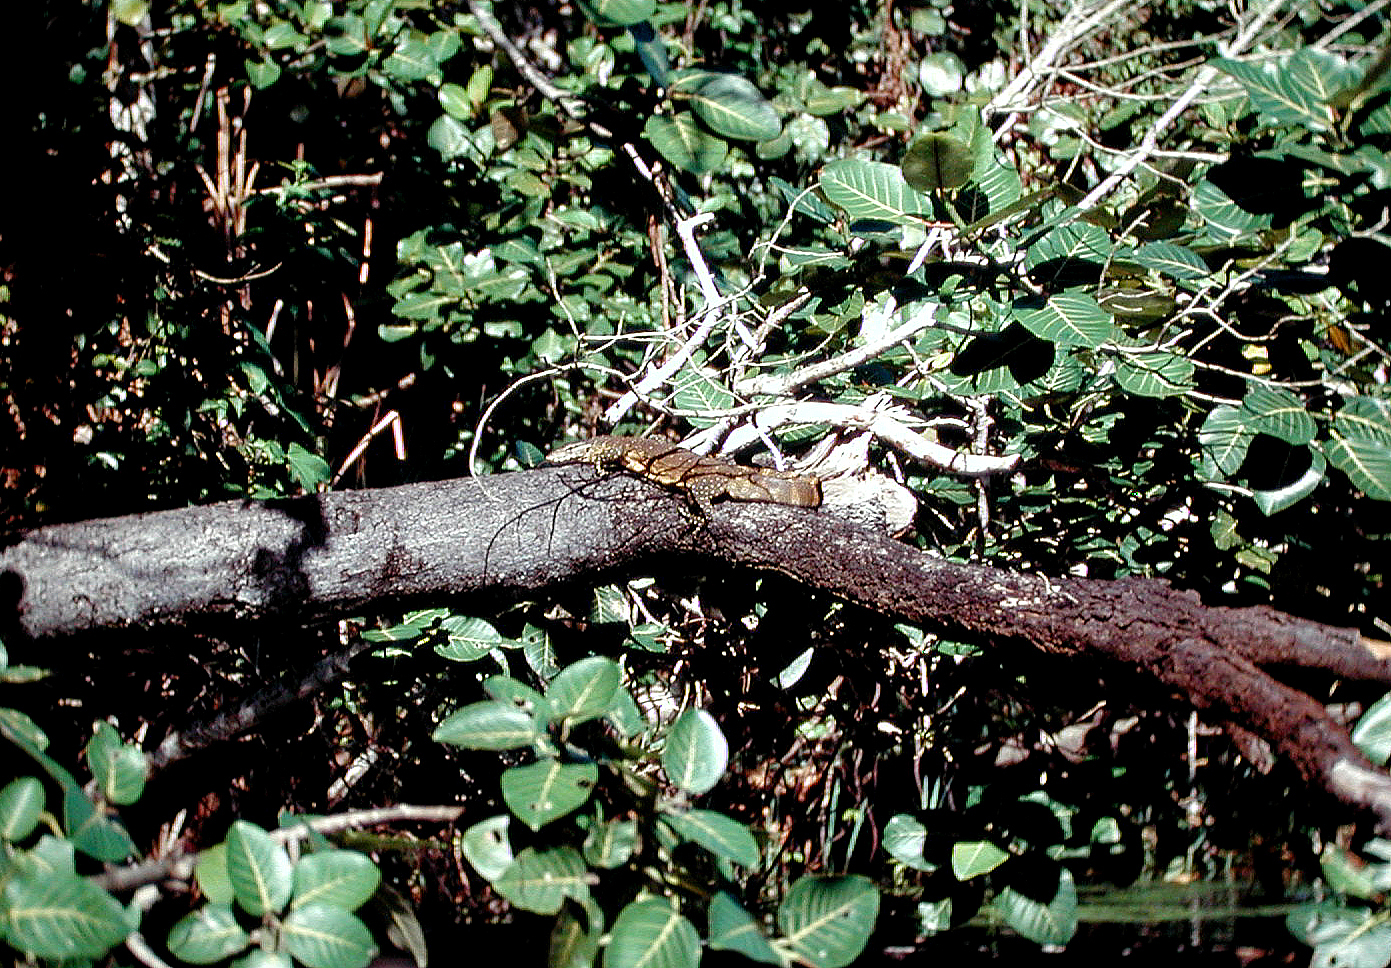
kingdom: Animalia
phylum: Chordata
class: Squamata
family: Varanidae
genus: Varanus
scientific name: Varanus niloticus
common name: Nile monitor
